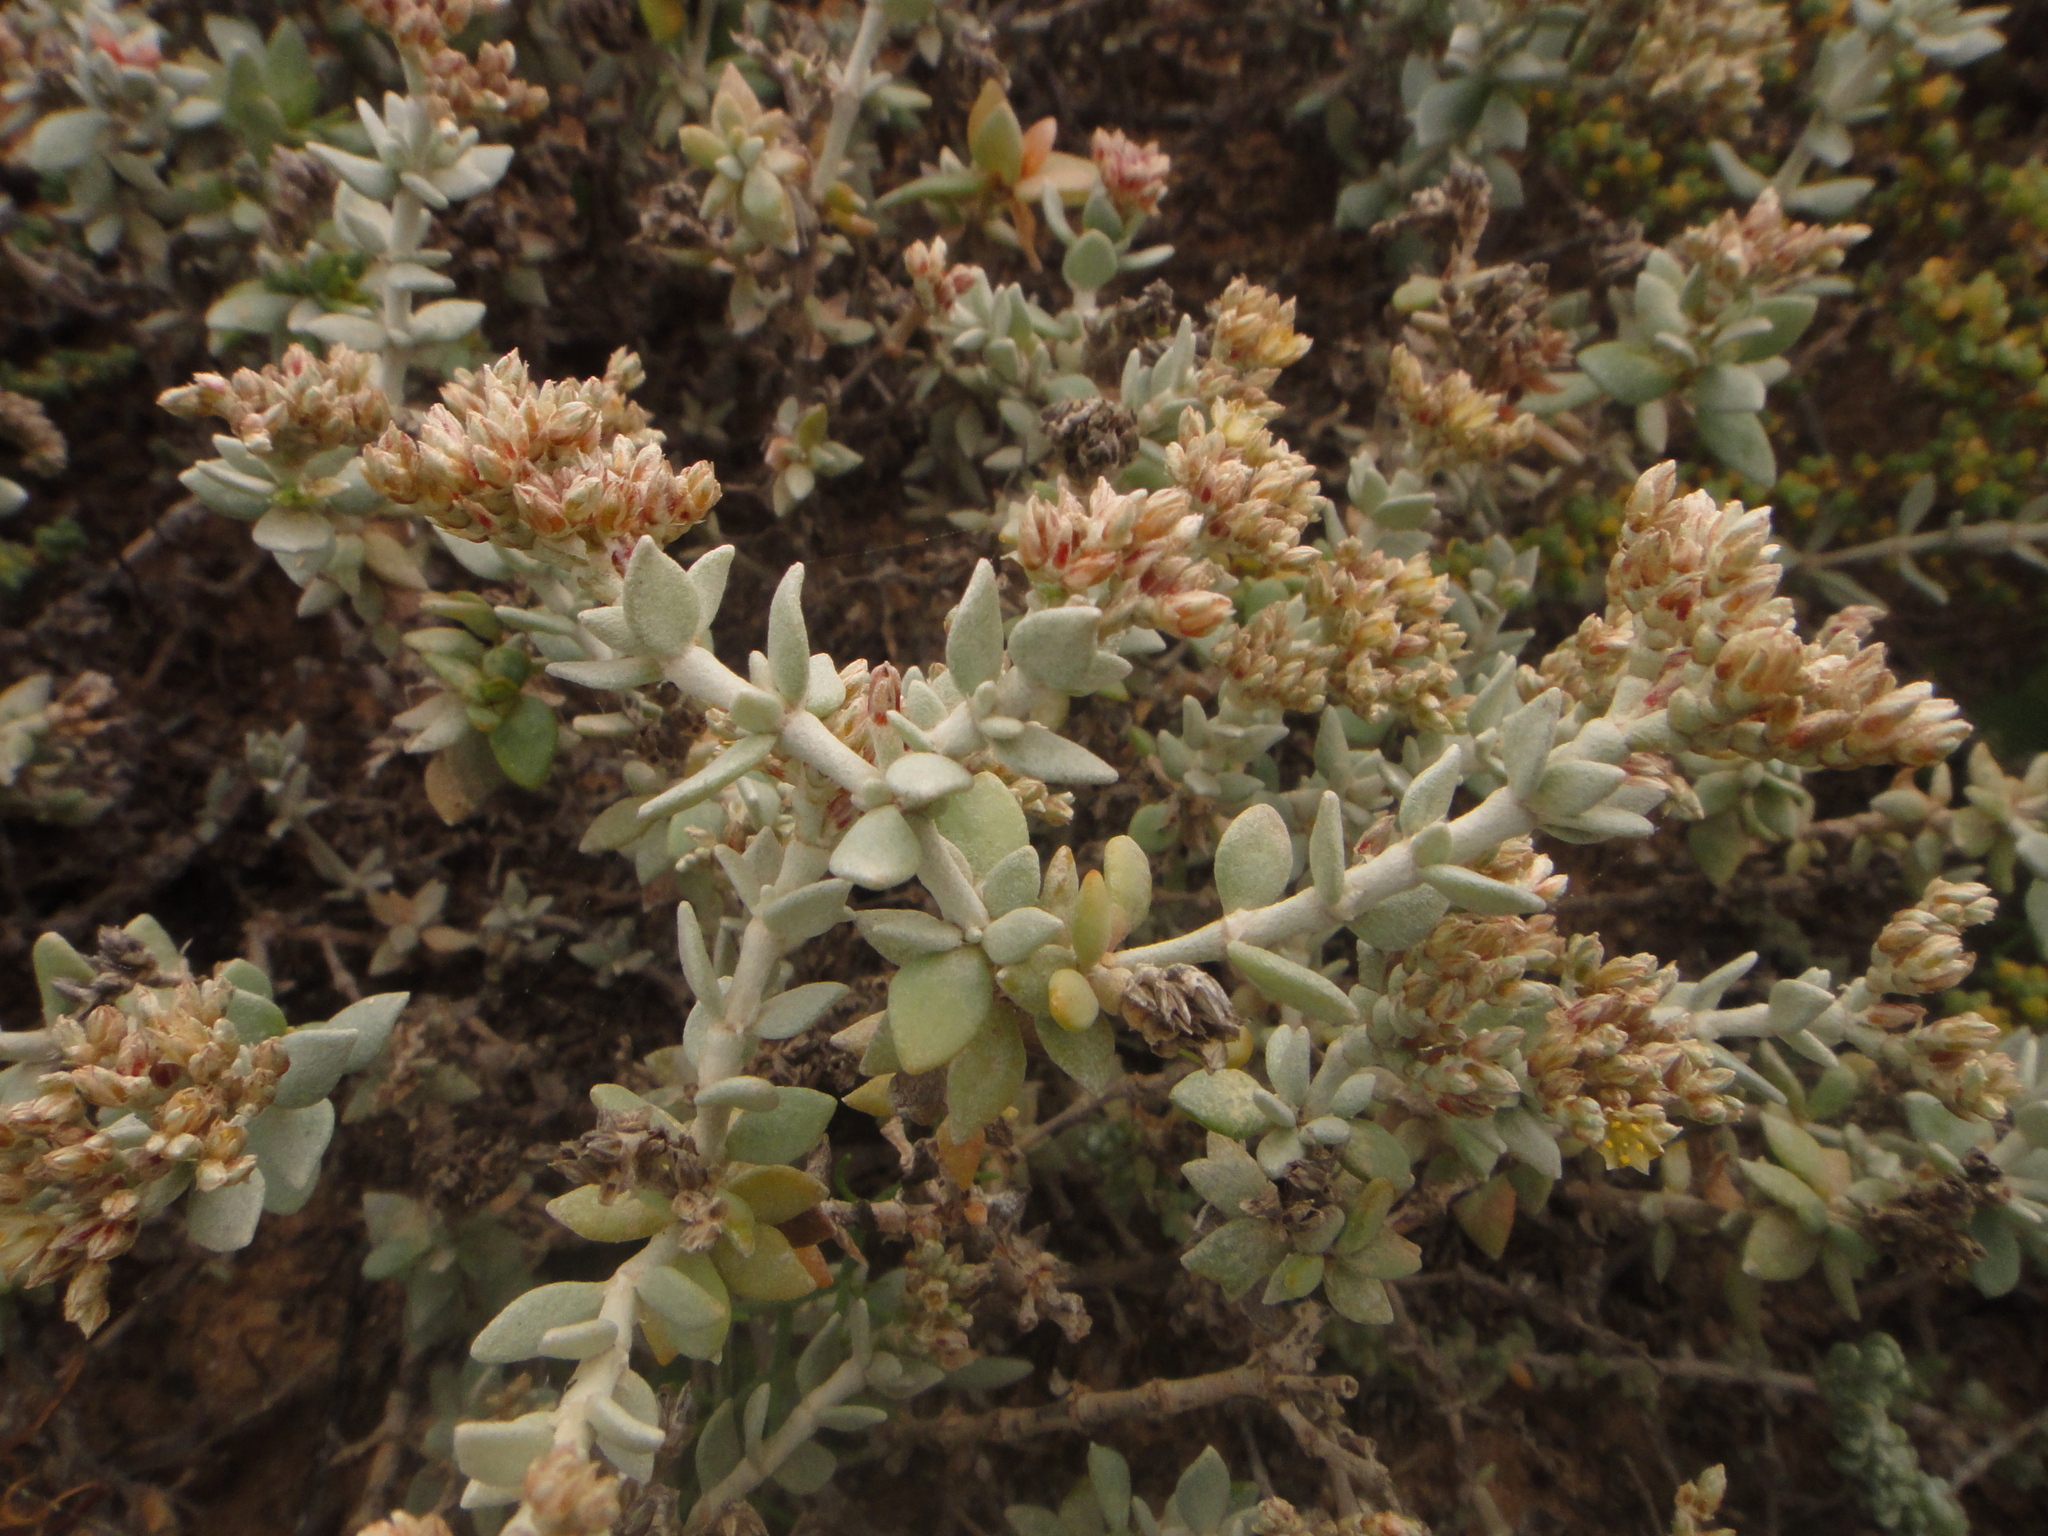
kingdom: Plantae
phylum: Tracheophyta
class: Magnoliopsida
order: Caryophyllales
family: Caryophyllaceae
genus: Polycarpaea
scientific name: Polycarpaea nivea
